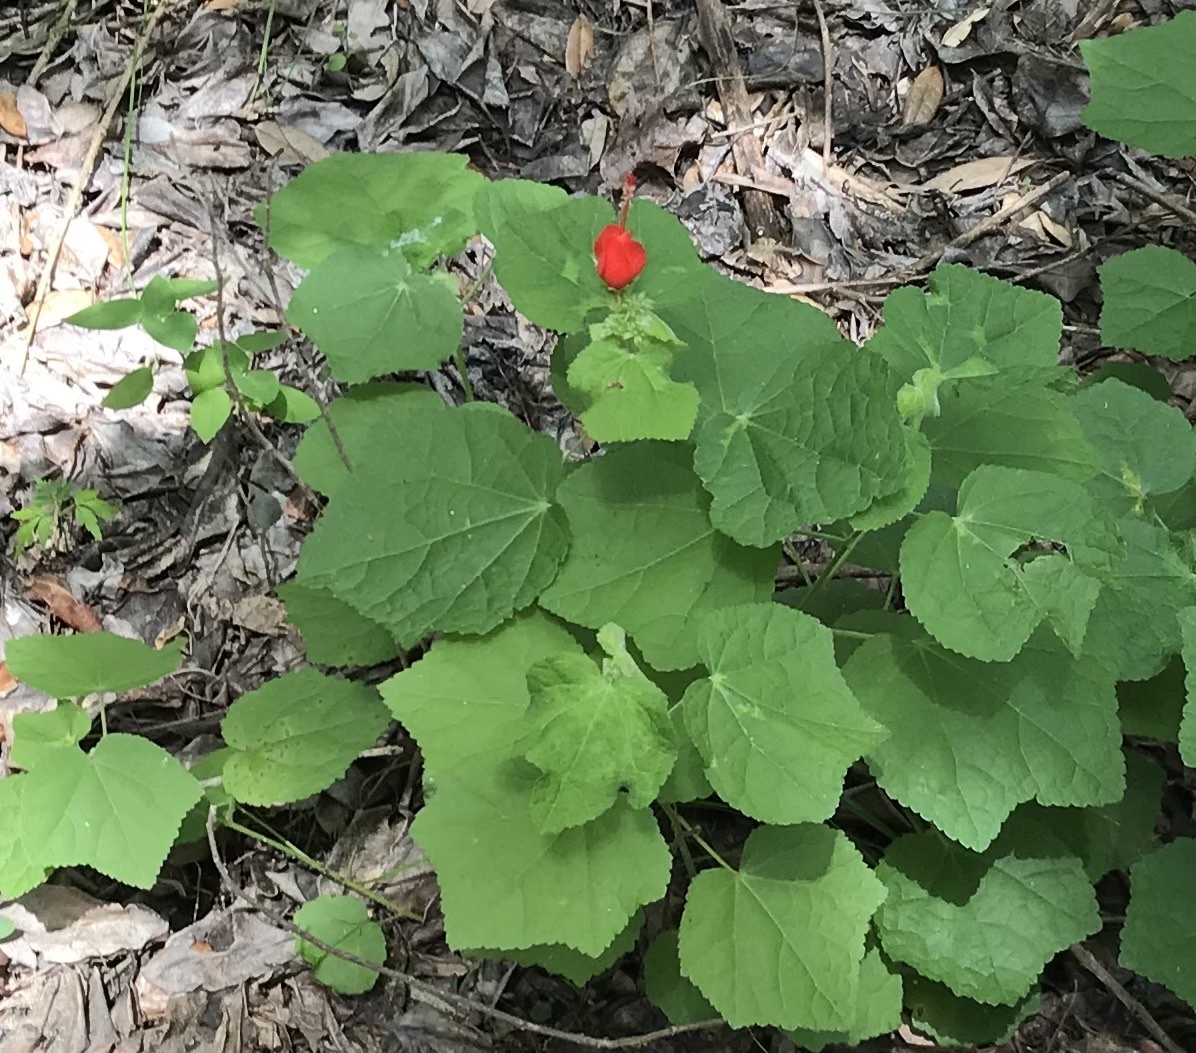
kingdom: Plantae
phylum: Tracheophyta
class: Magnoliopsida
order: Malvales
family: Malvaceae
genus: Malvaviscus
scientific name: Malvaviscus arboreus
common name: Wax mallow
